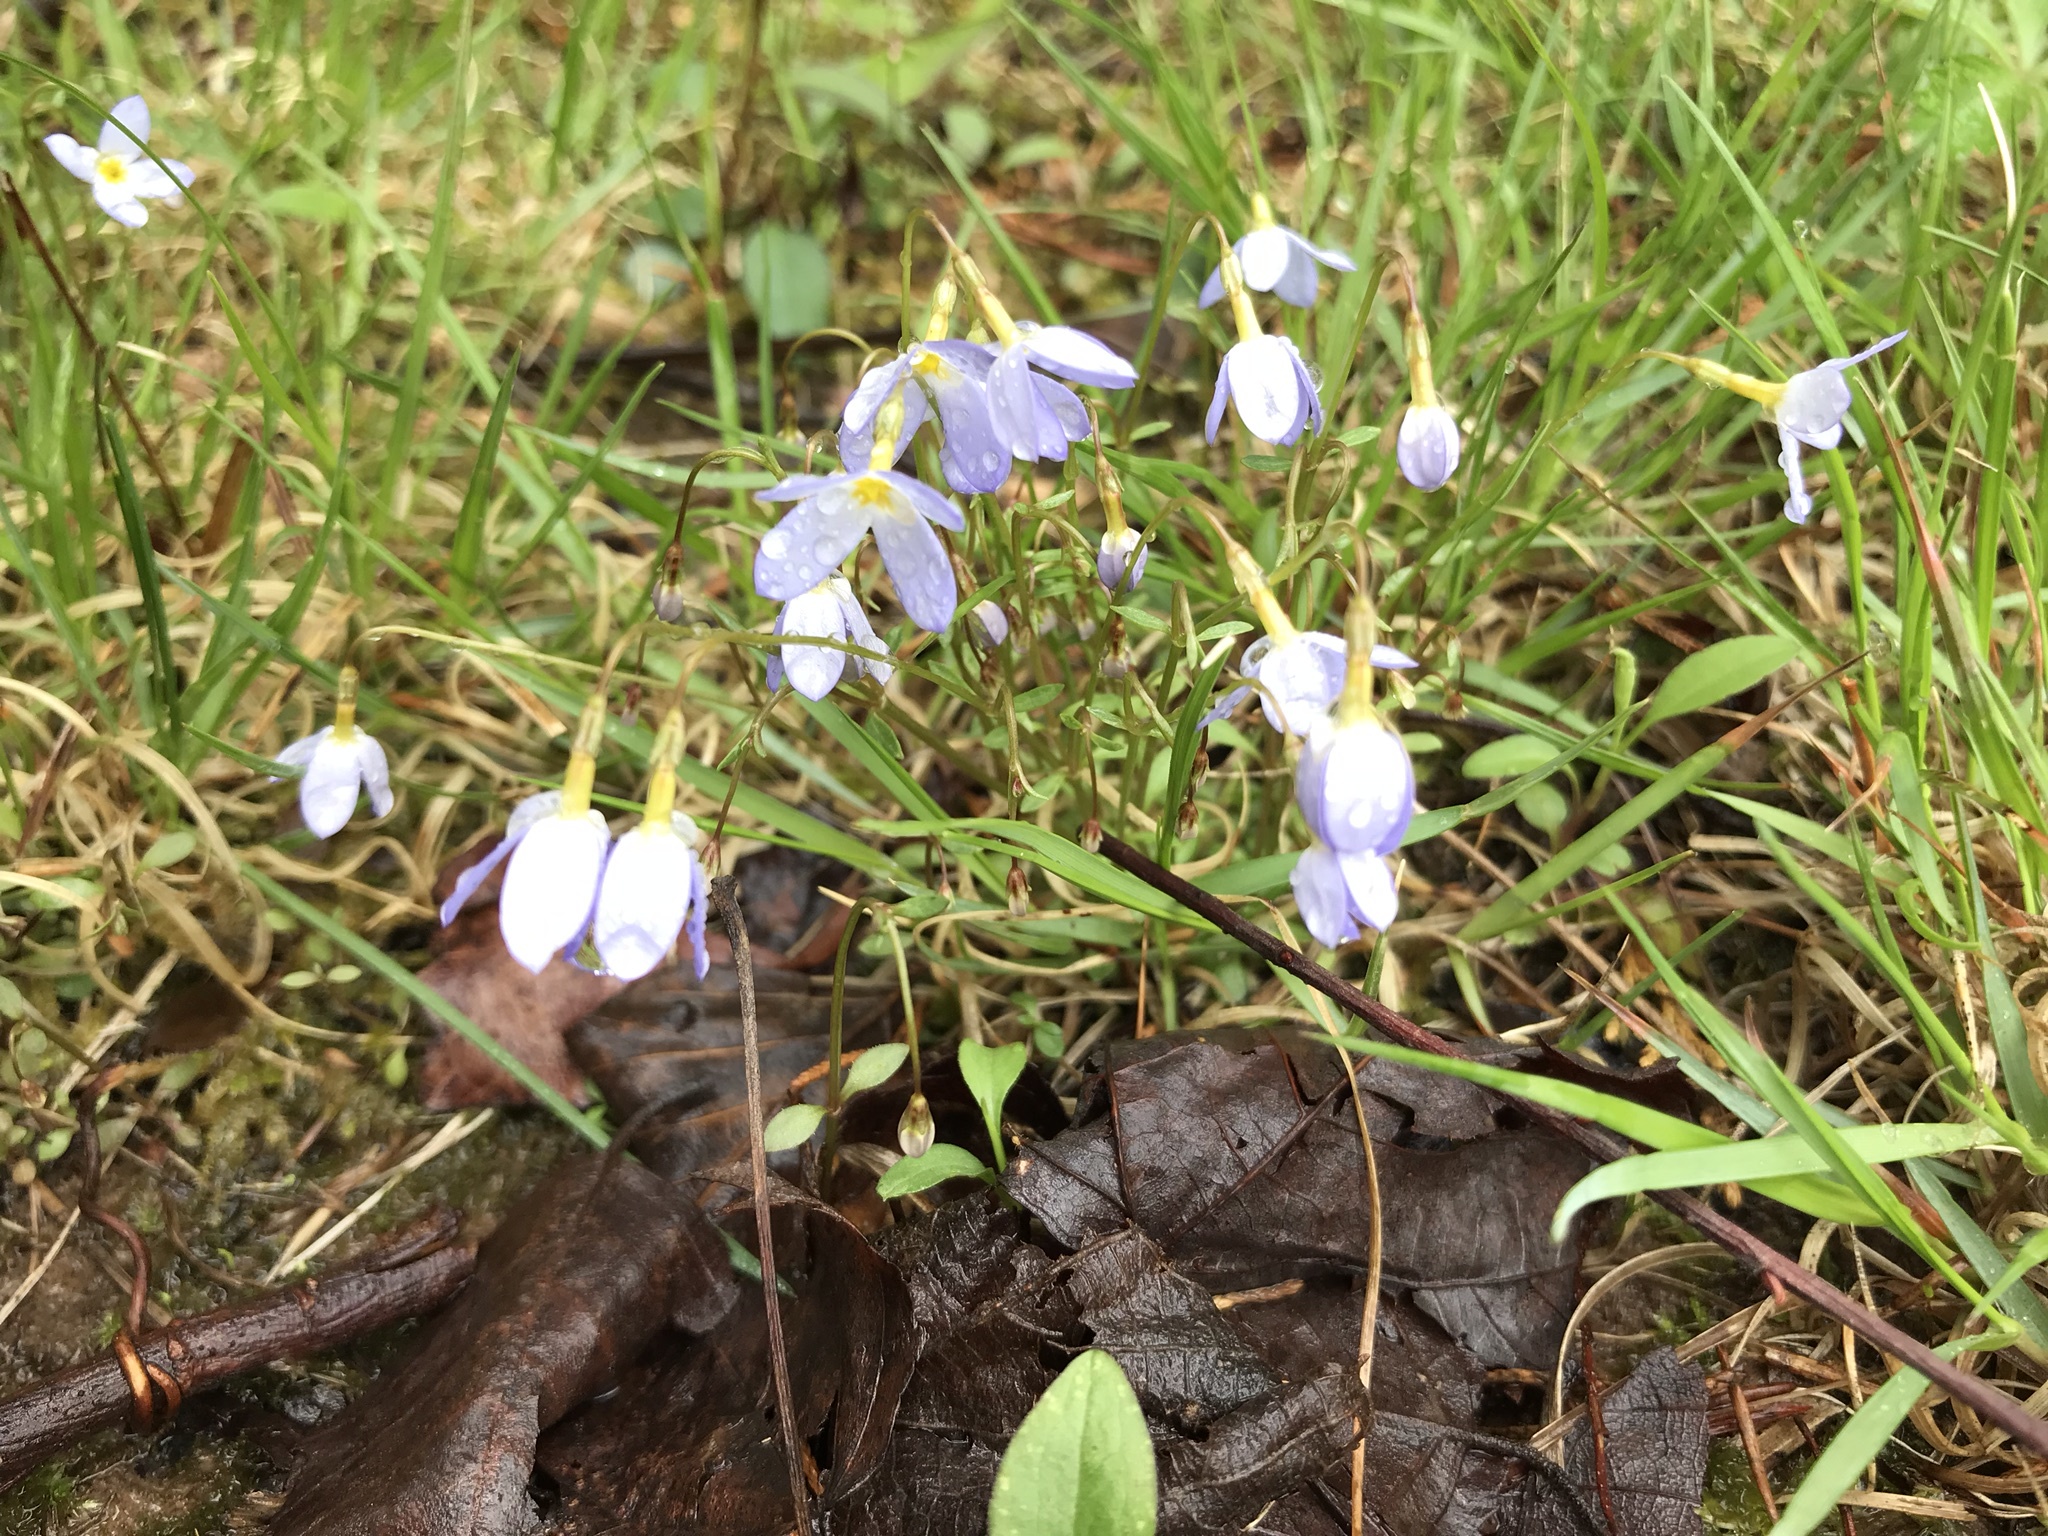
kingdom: Plantae
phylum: Tracheophyta
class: Magnoliopsida
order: Gentianales
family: Rubiaceae
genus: Houstonia
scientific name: Houstonia caerulea
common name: Bluets
